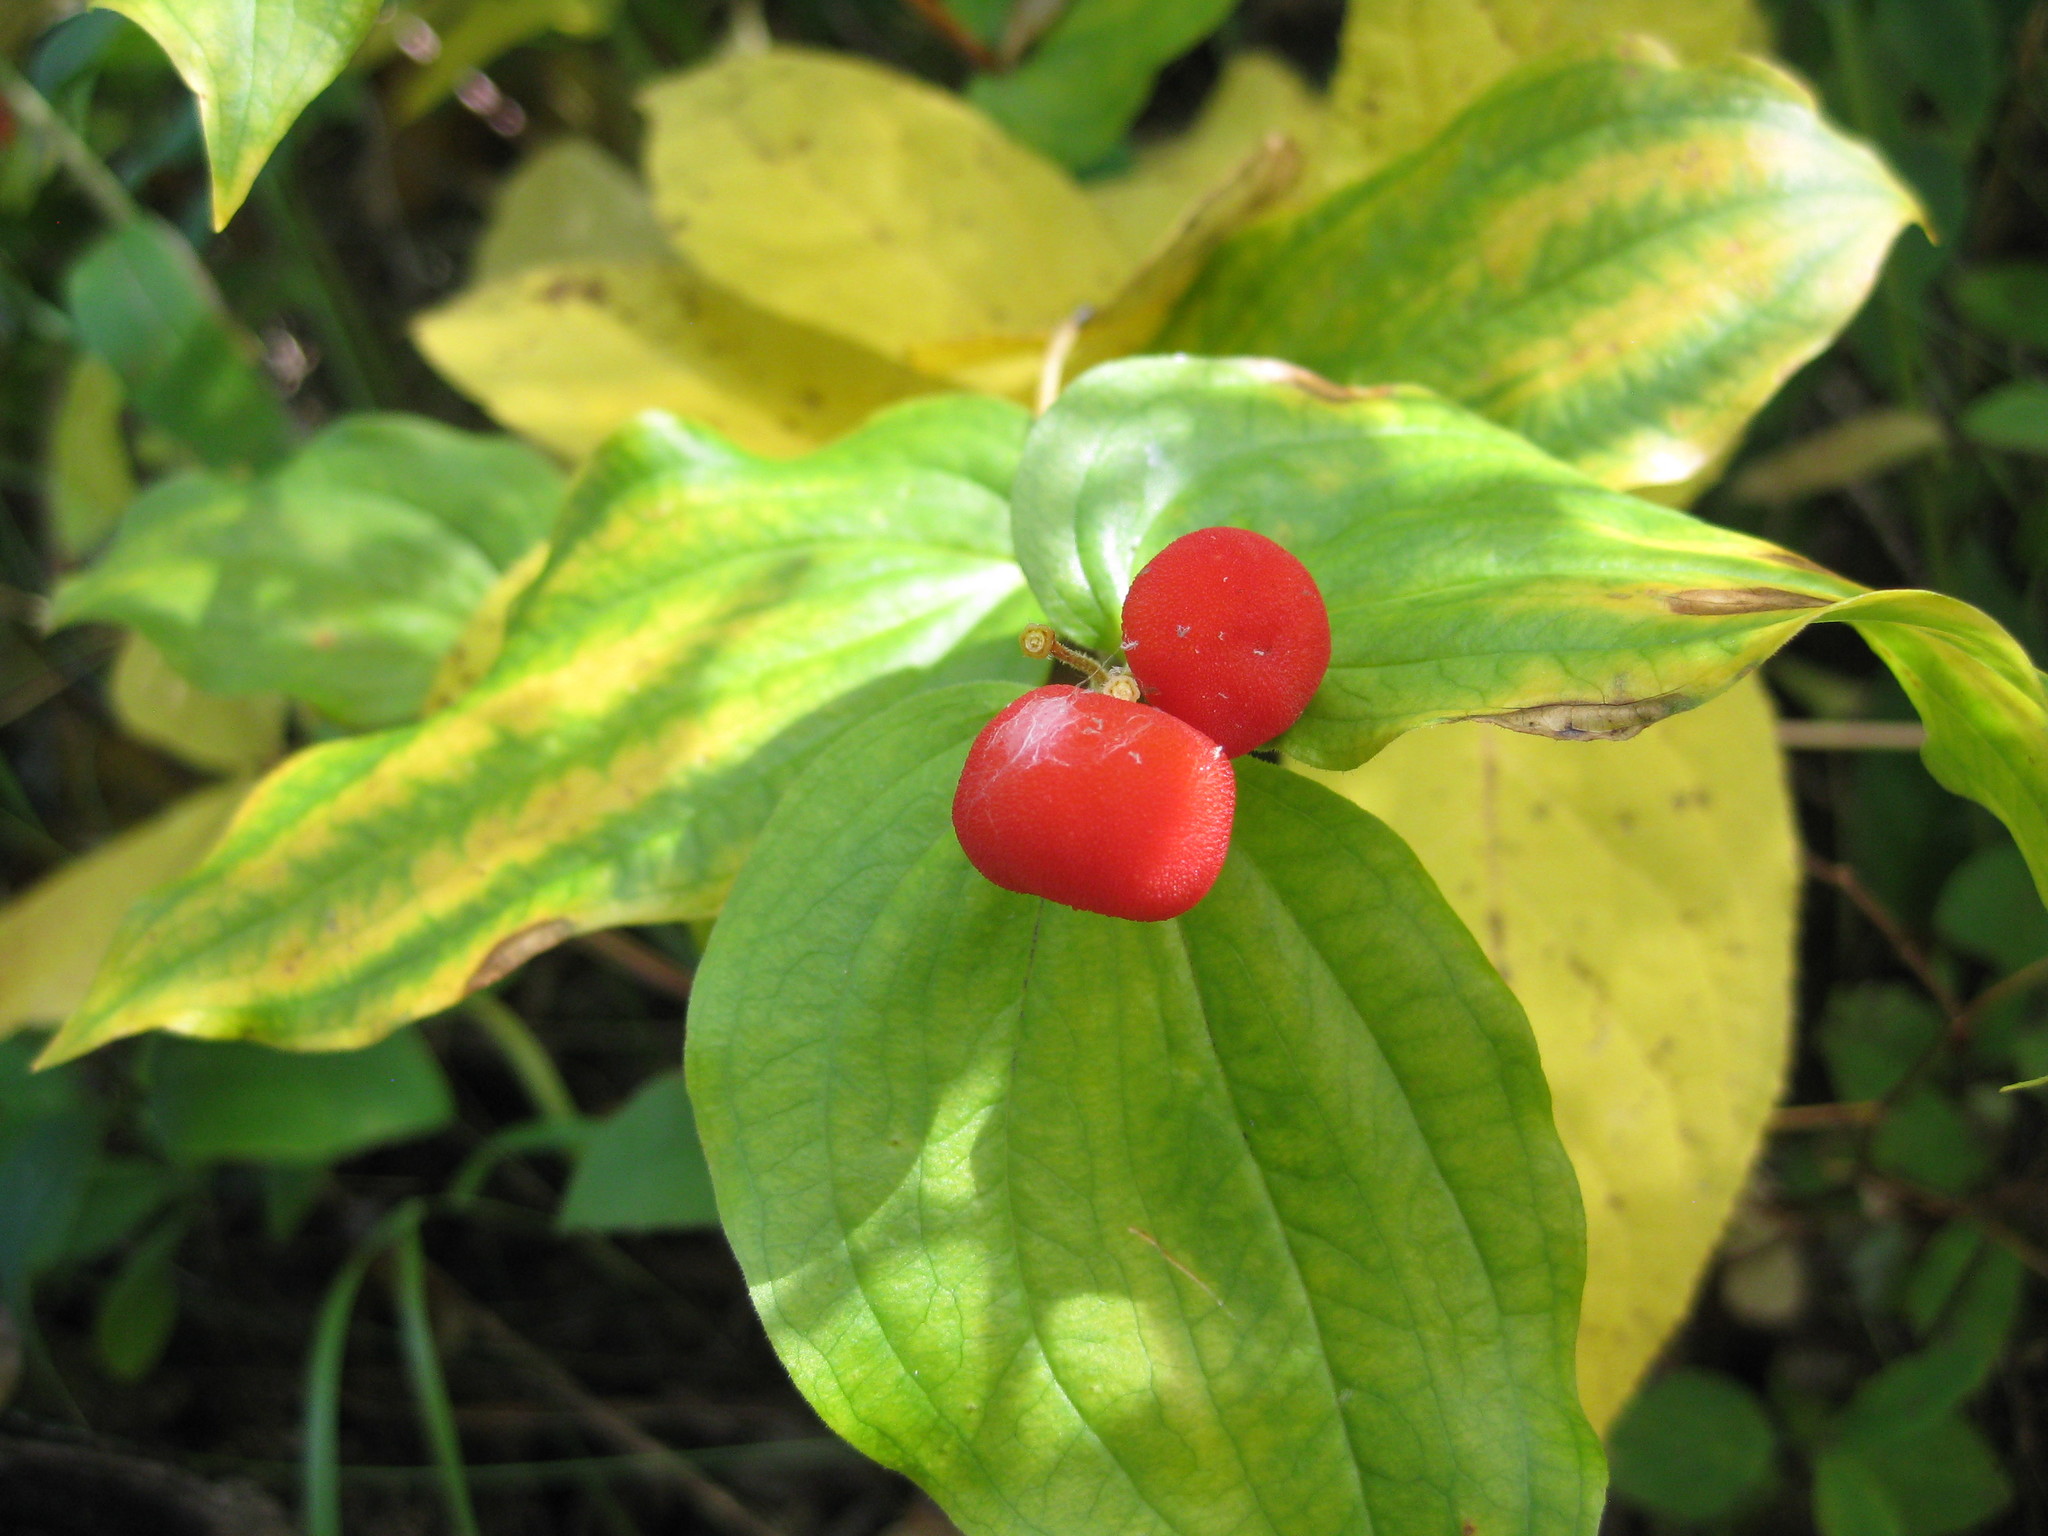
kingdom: Plantae
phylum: Tracheophyta
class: Liliopsida
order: Liliales
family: Liliaceae
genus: Prosartes
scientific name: Prosartes trachycarpa
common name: Rough-fruit fairy-bells
